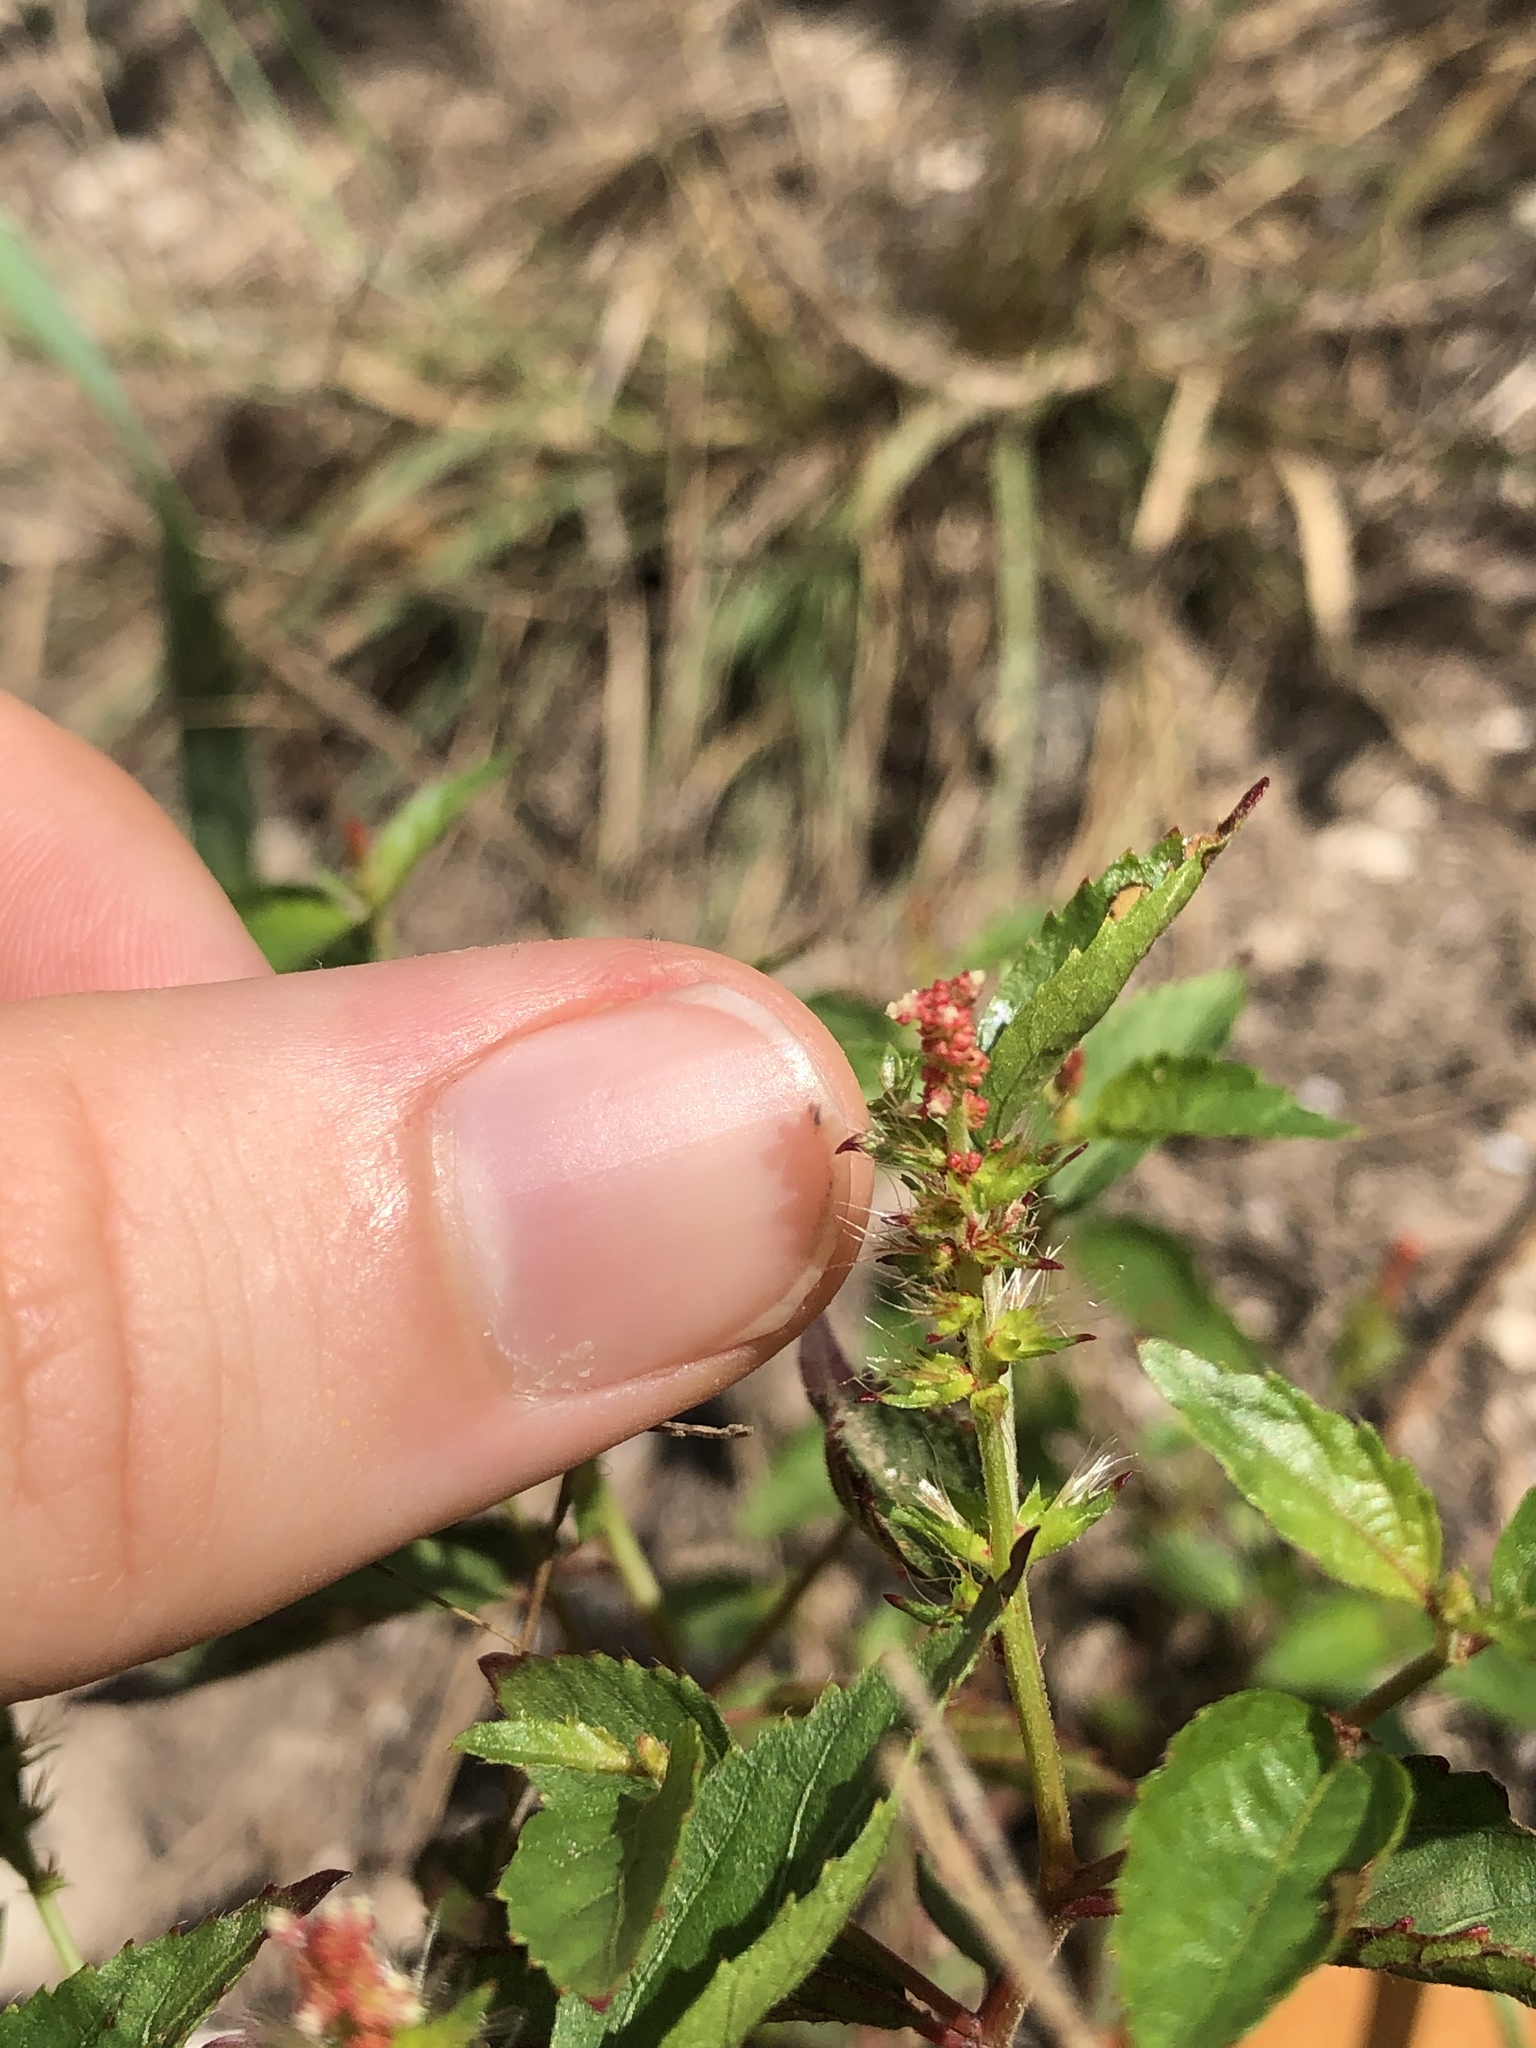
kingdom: Plantae
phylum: Tracheophyta
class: Magnoliopsida
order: Malpighiales
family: Euphorbiaceae
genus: Acalypha
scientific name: Acalypha phleoides
